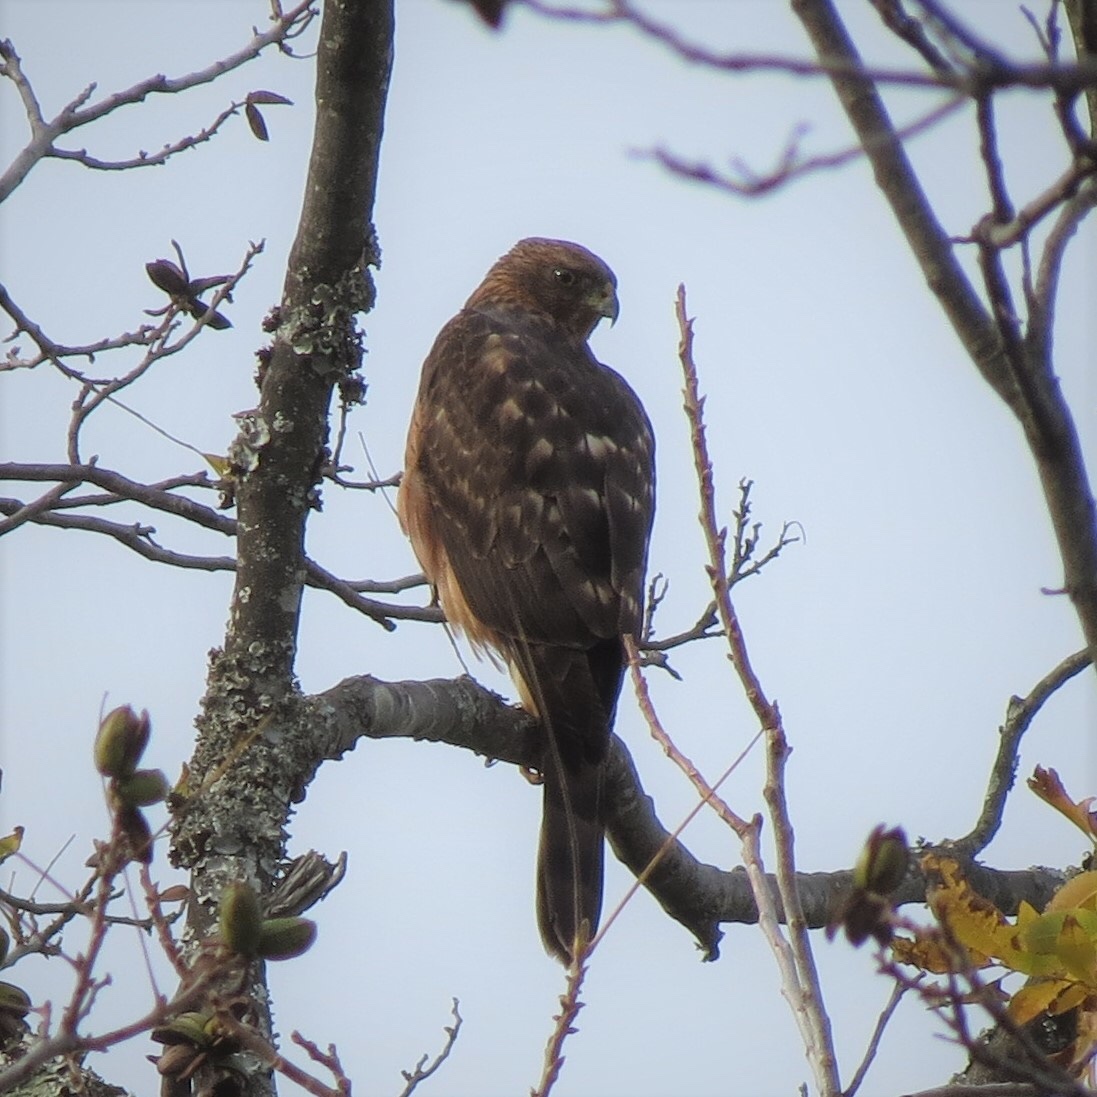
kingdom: Animalia
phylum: Chordata
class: Aves
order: Accipitriformes
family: Accipitridae
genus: Accipiter
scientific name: Accipiter melanoleucus
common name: Black sparrowhawk
